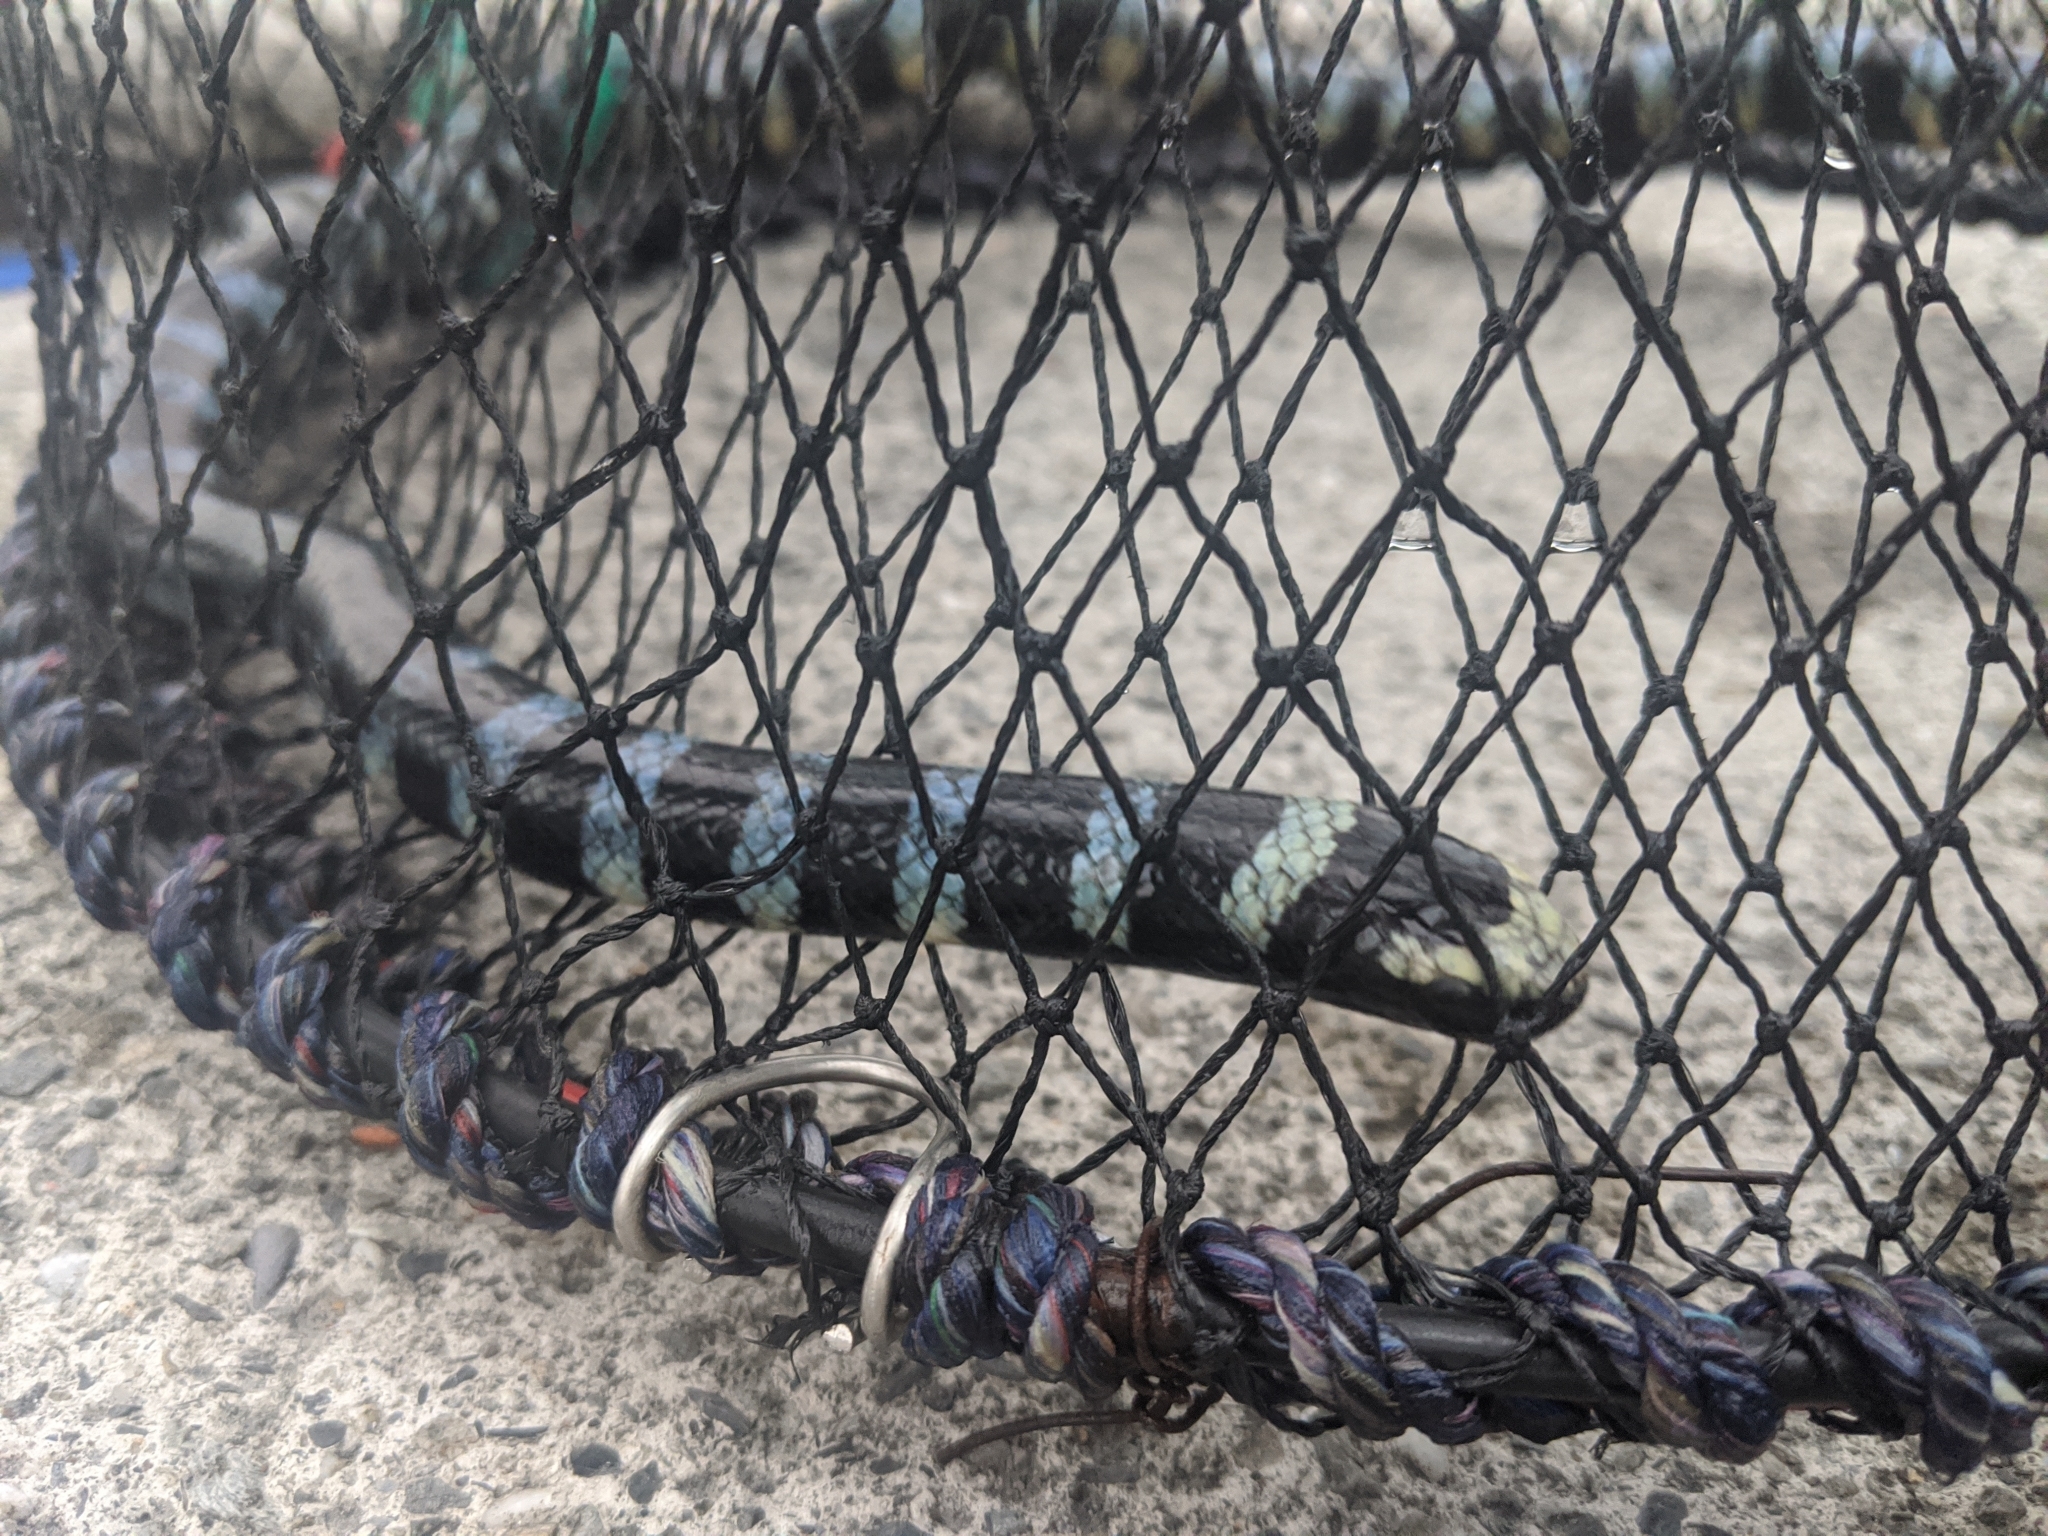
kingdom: Animalia
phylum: Chordata
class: Squamata
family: Elapidae
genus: Laticauda
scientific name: Laticauda laticaudata
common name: Blue-banded sea krait
